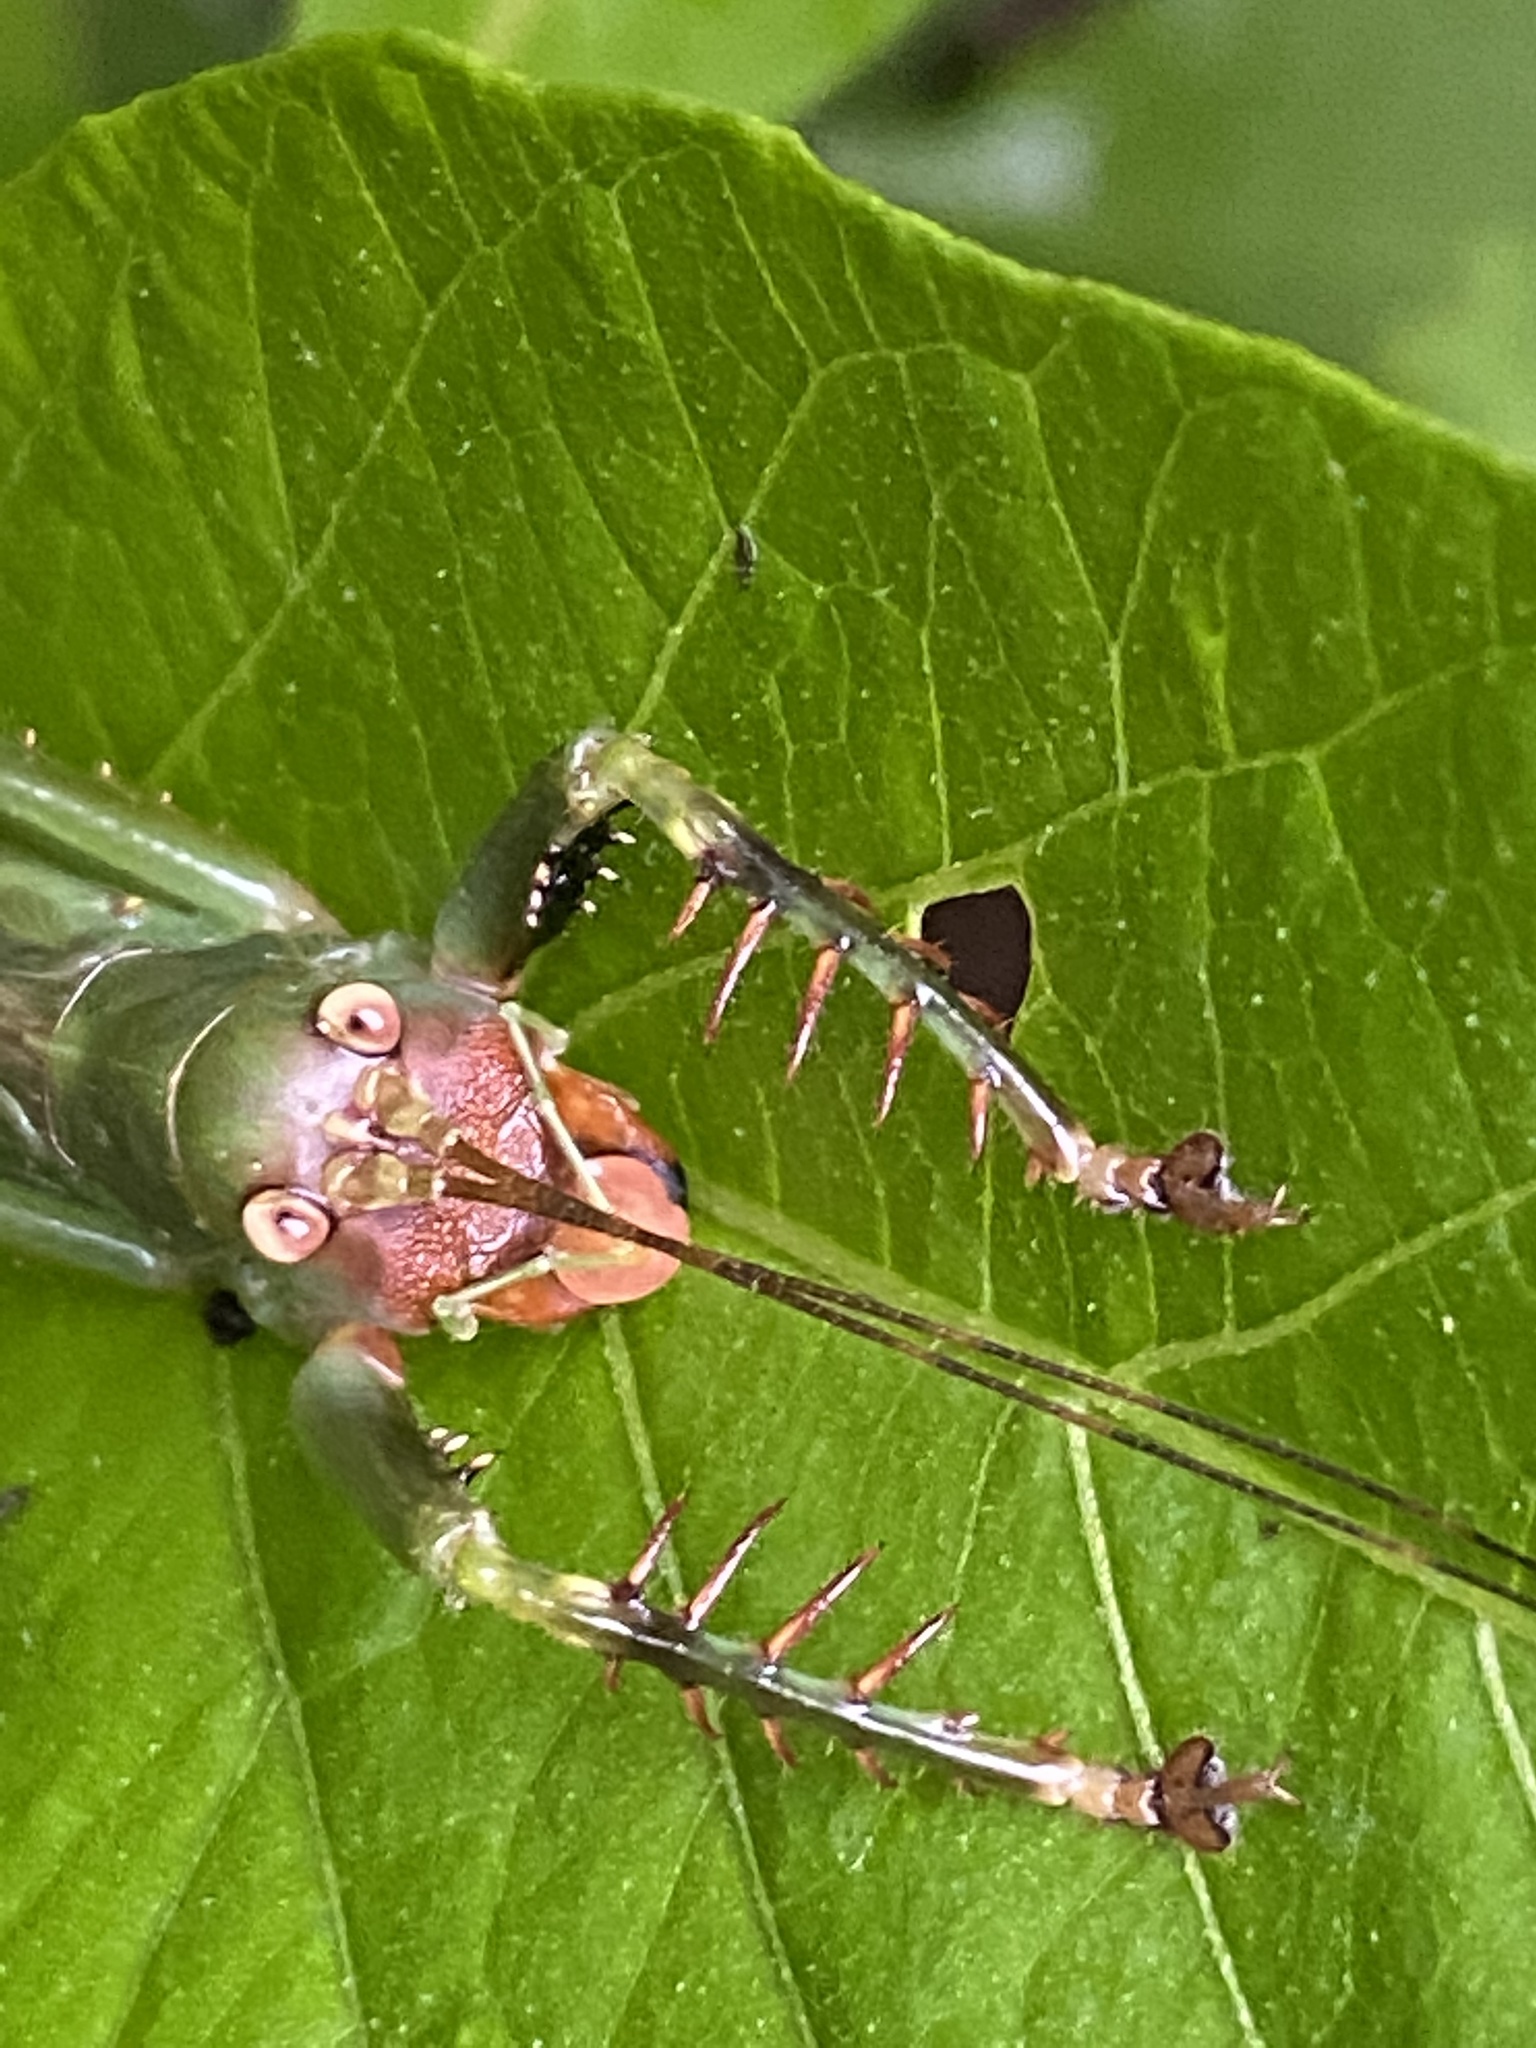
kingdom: Animalia
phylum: Arthropoda
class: Insecta
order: Orthoptera
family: Tettigoniidae
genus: Cerberodon
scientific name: Cerberodon viridis
